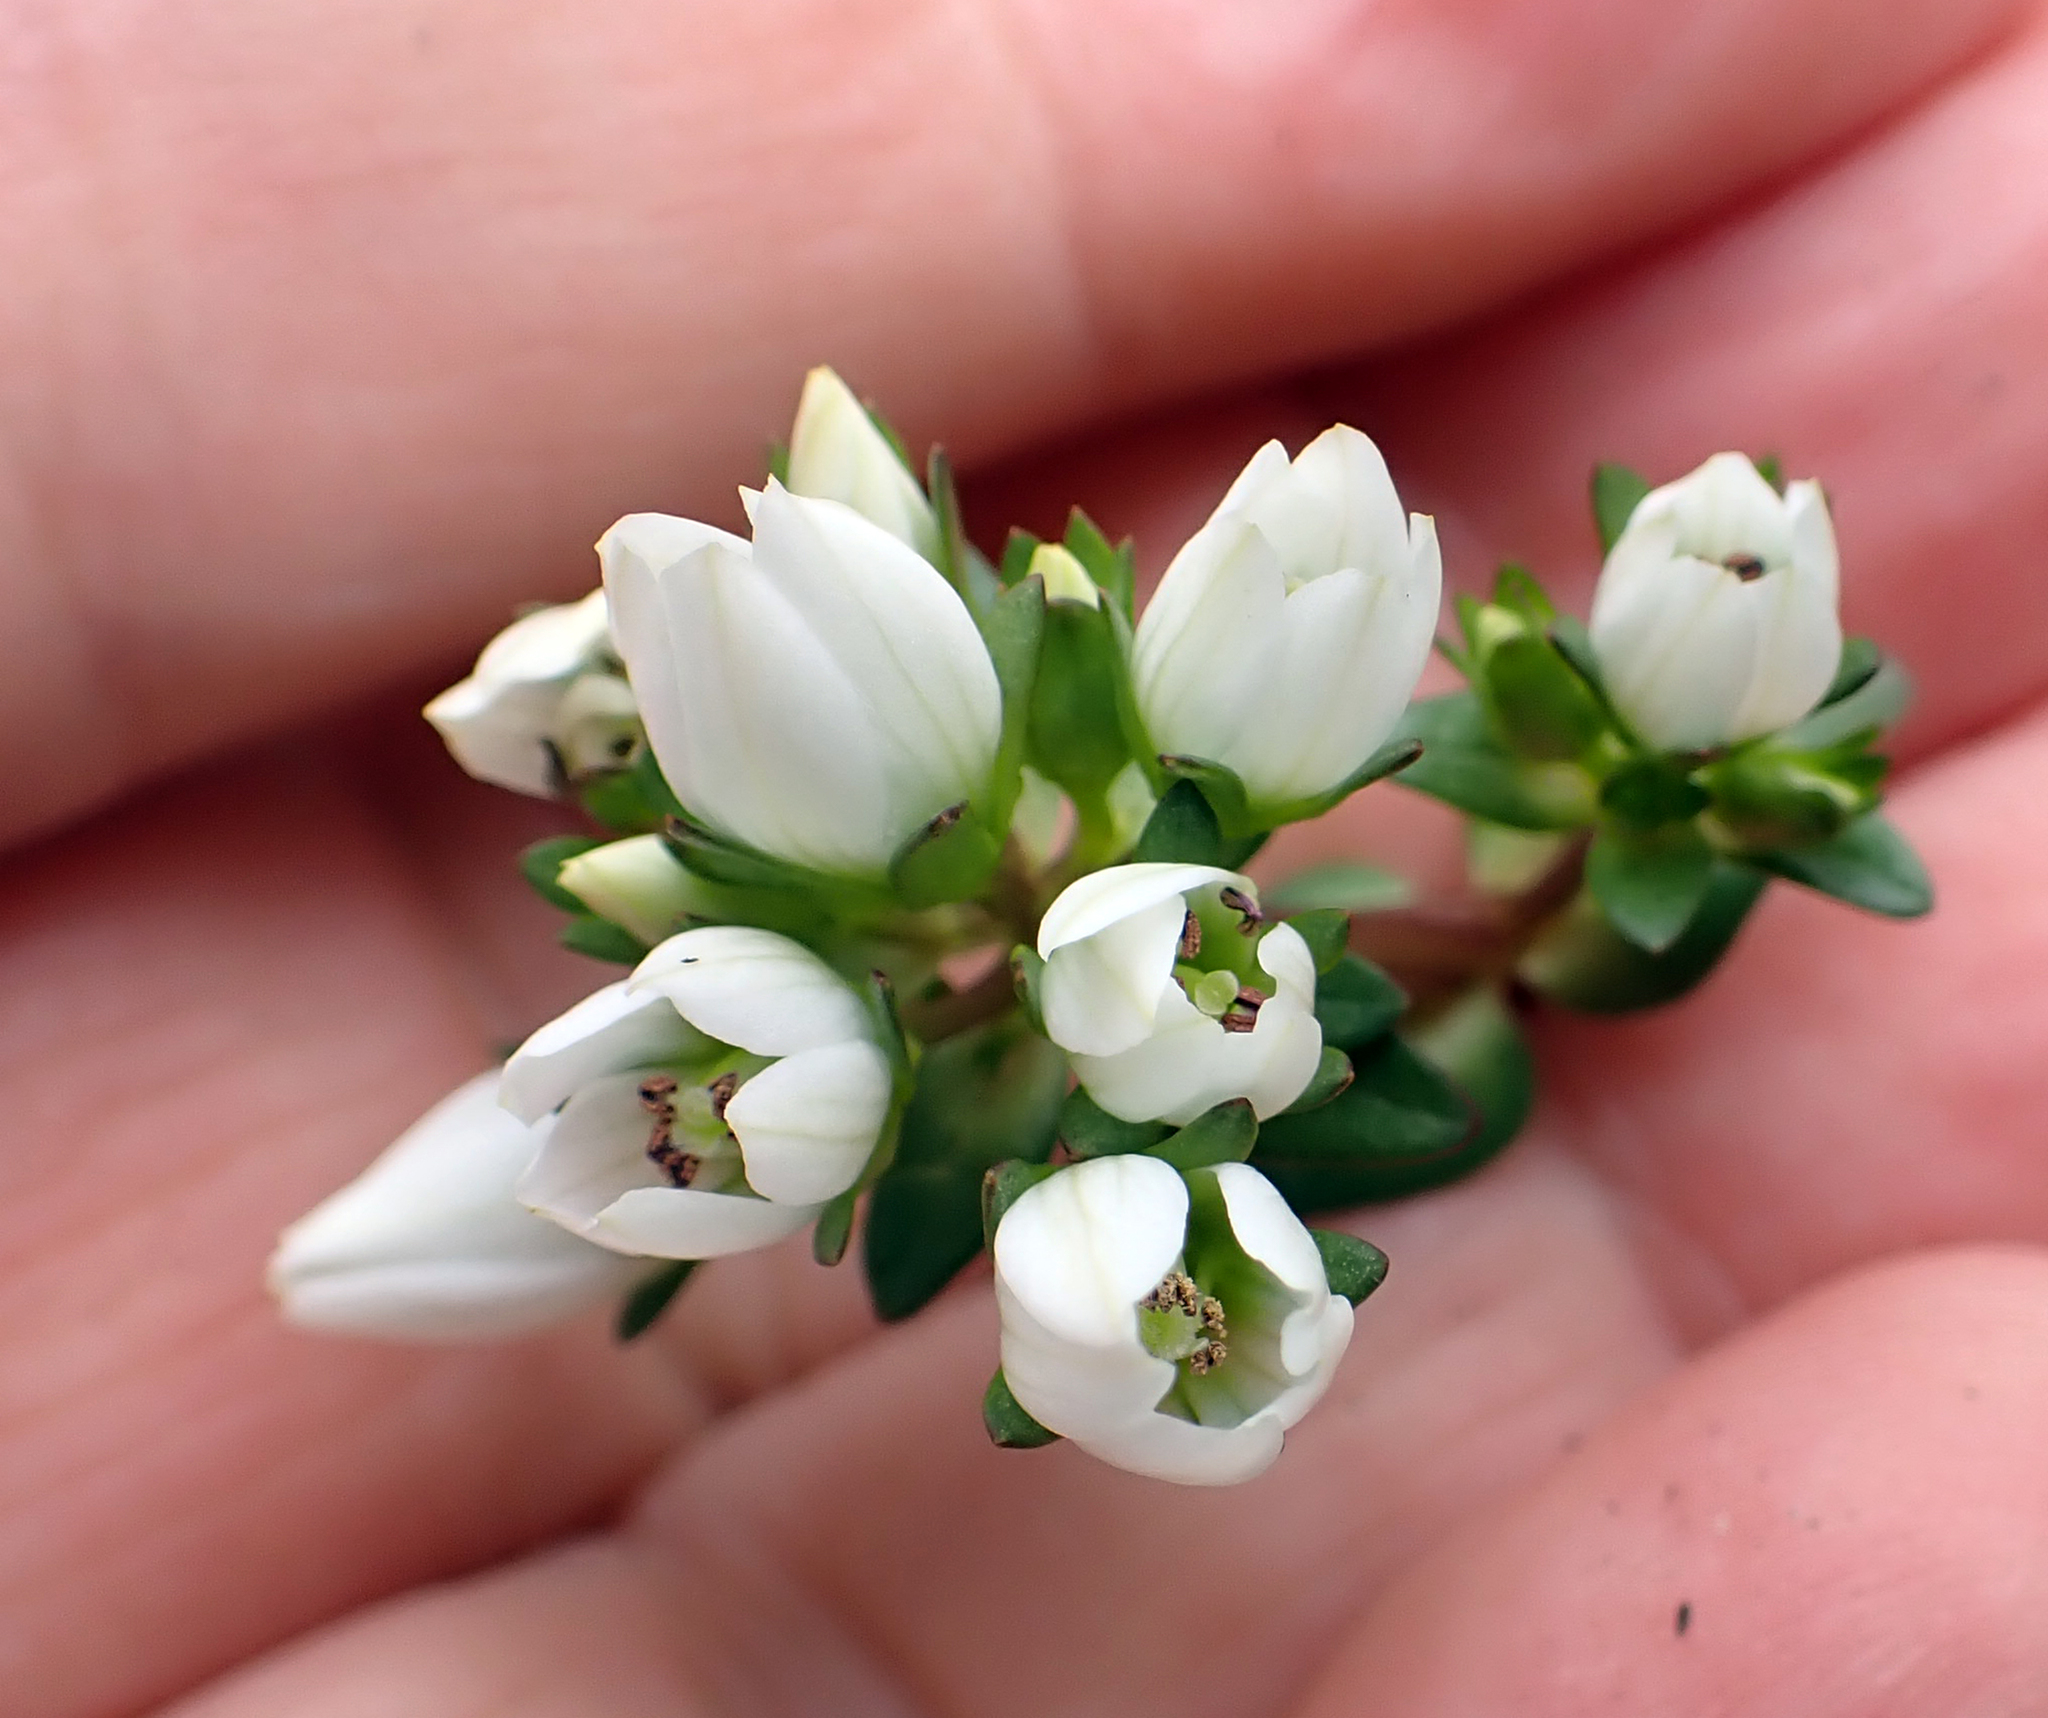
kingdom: Plantae
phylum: Tracheophyta
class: Magnoliopsida
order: Gentianales
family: Gentianaceae
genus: Gentianella
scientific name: Gentianella chathamica
